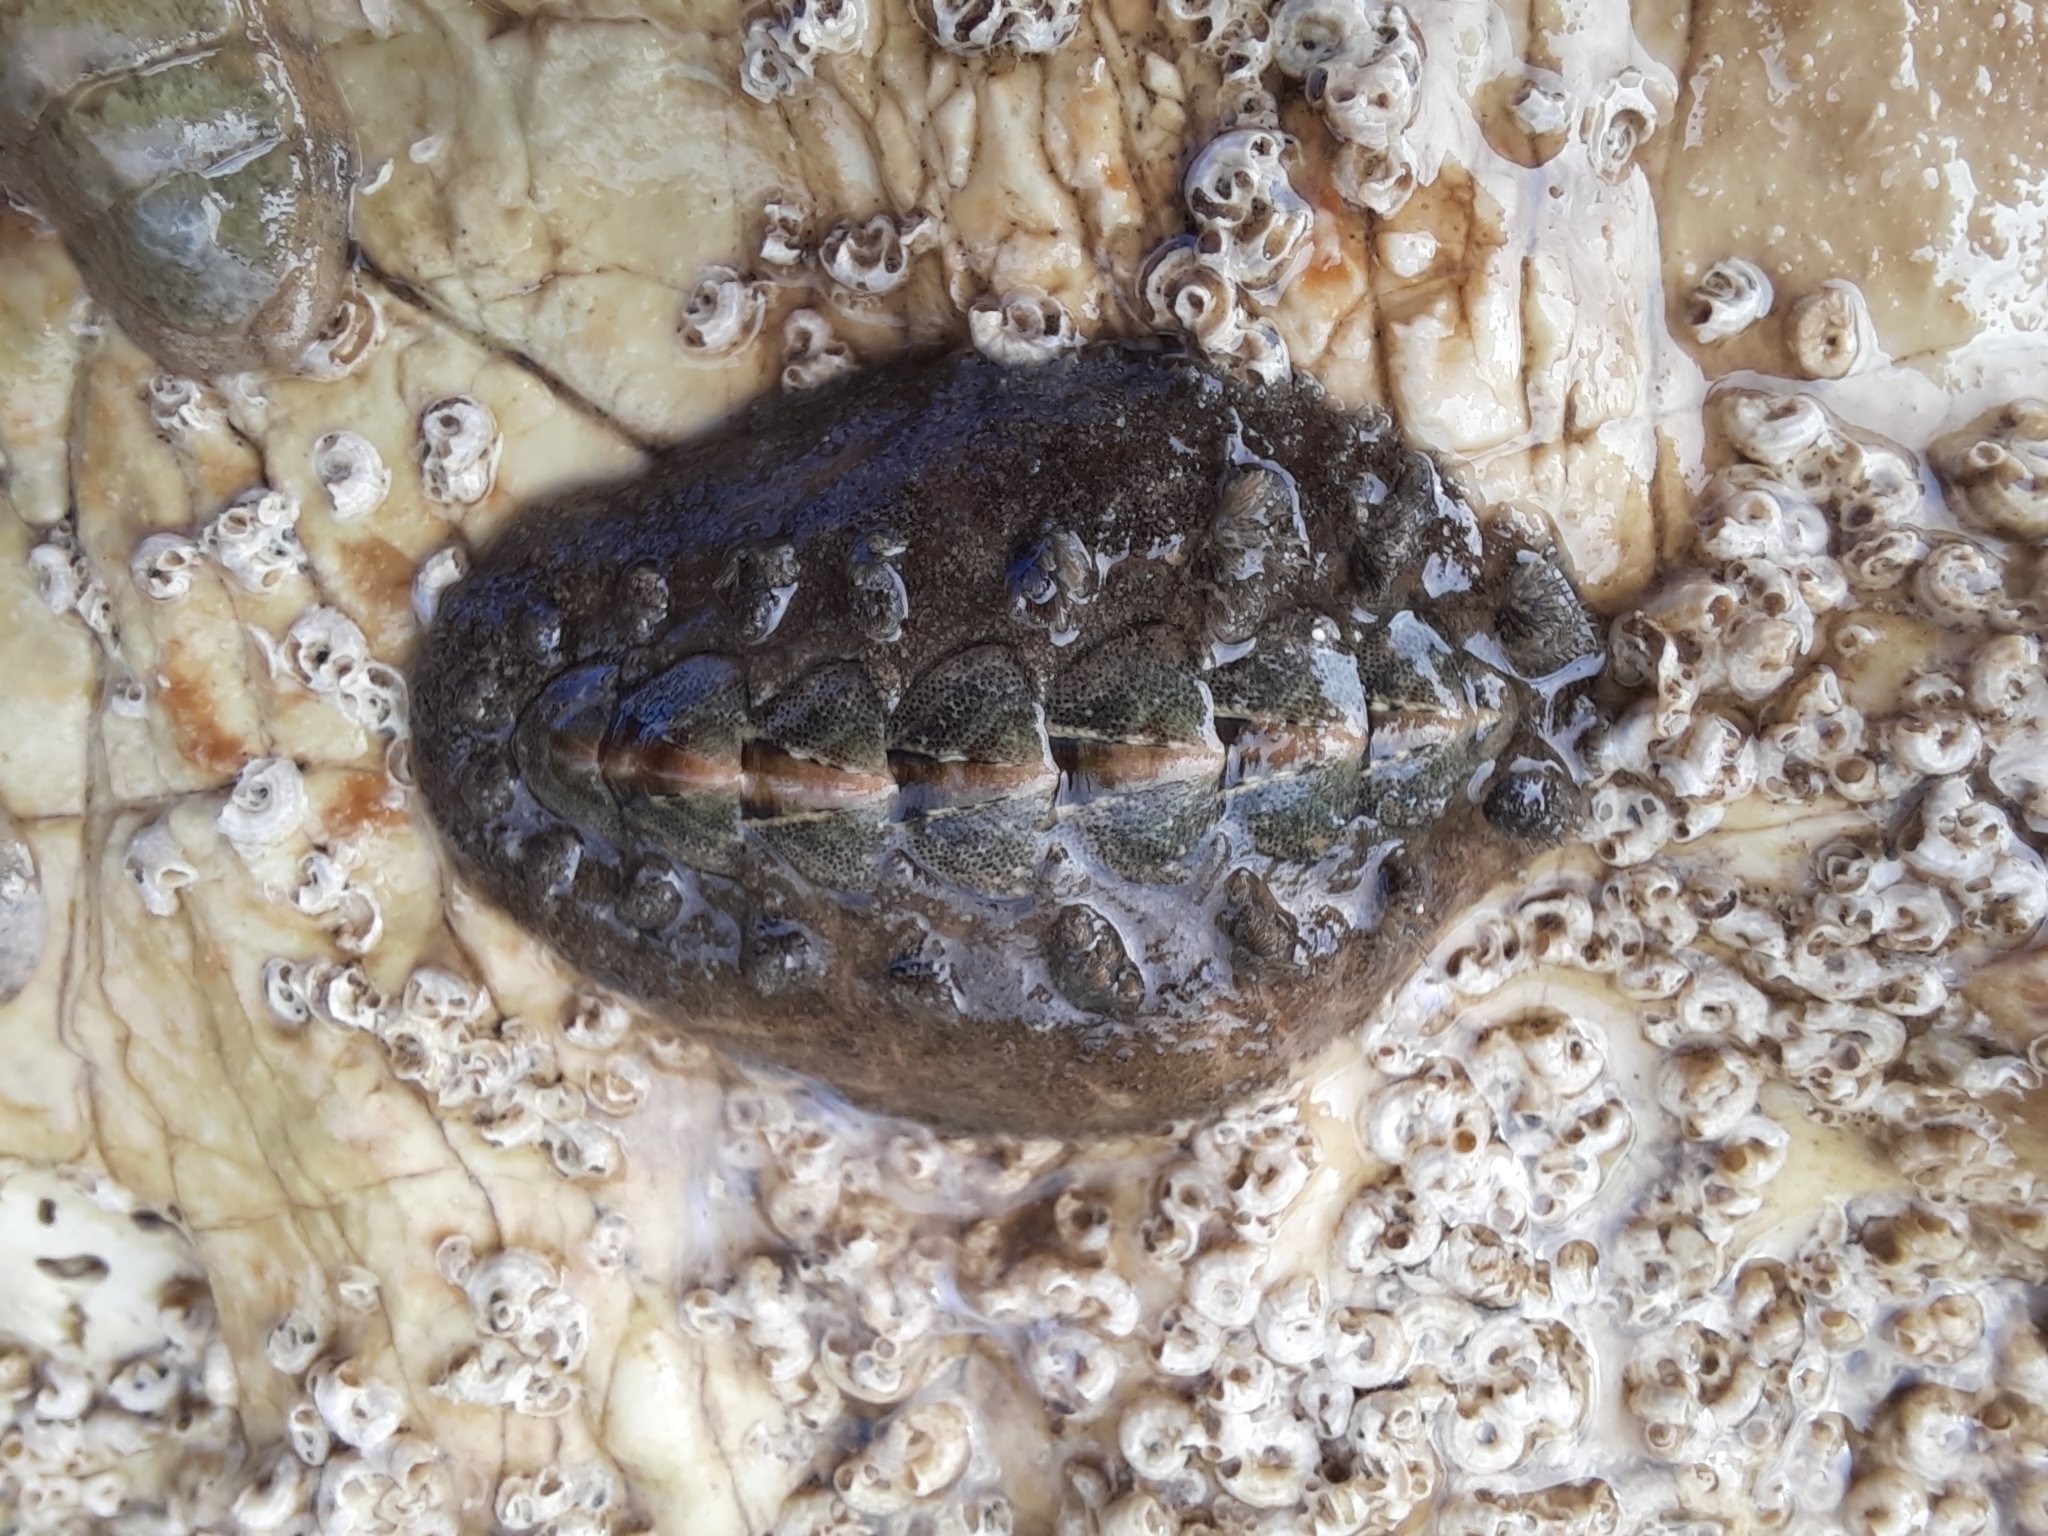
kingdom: Animalia
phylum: Mollusca
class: Polyplacophora
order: Chitonida
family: Acanthochitonidae
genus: Acanthochitona
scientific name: Acanthochitona zelandica
